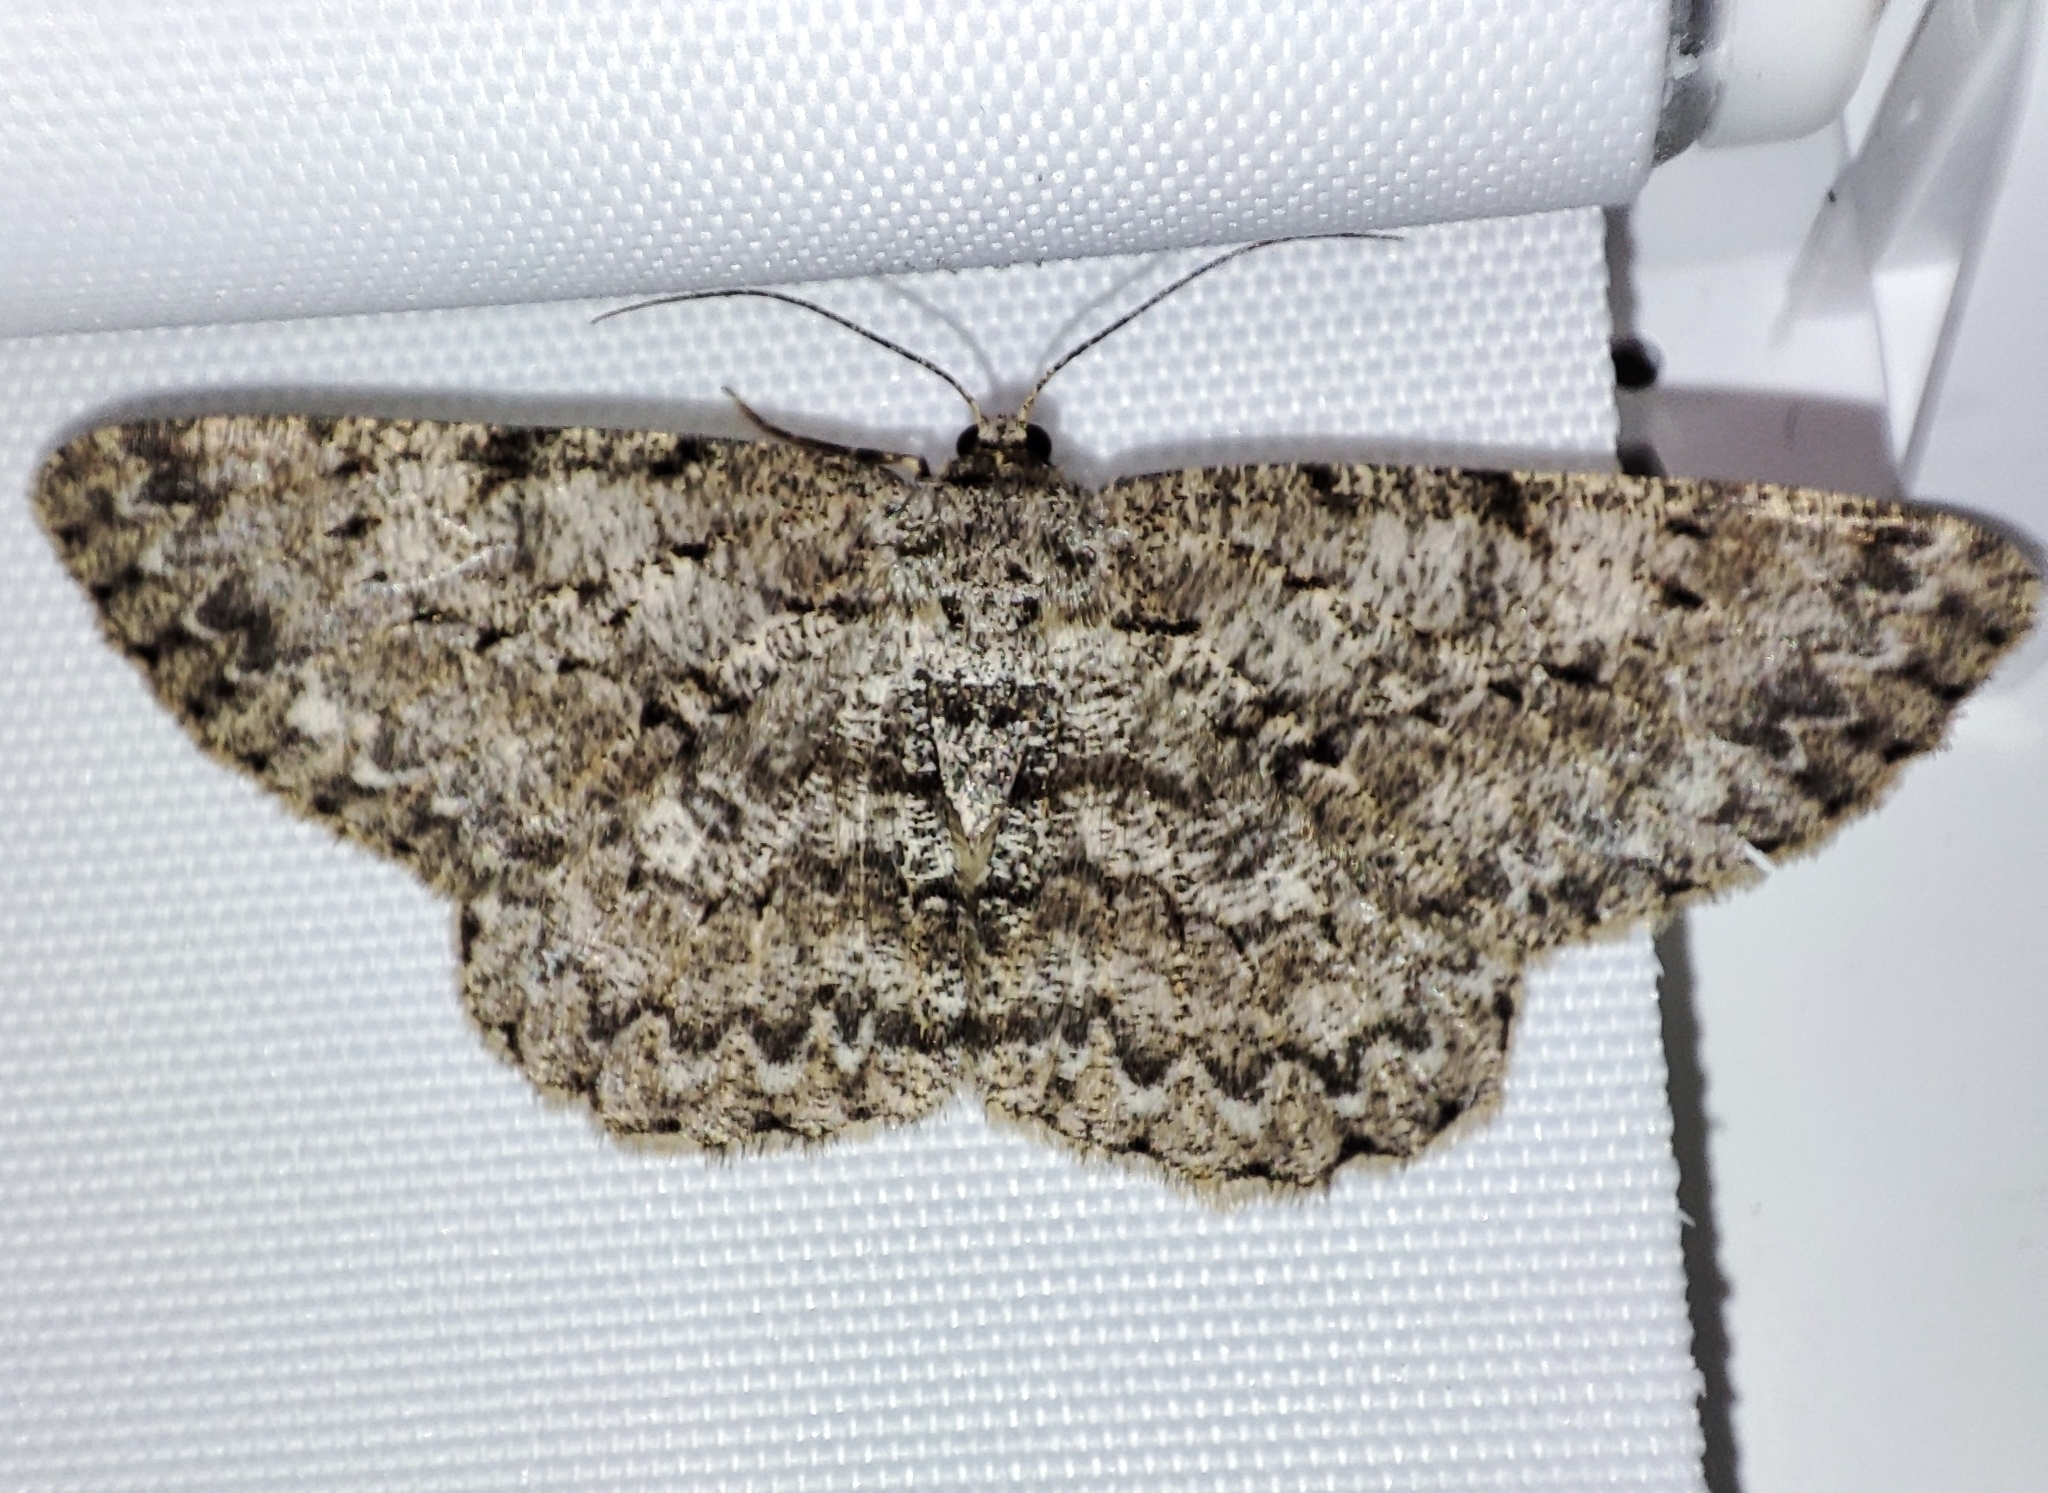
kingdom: Animalia
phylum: Arthropoda
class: Insecta
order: Lepidoptera
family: Geometridae
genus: Hypomecis
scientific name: Hypomecis punctinalis
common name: Pale oak beauty
